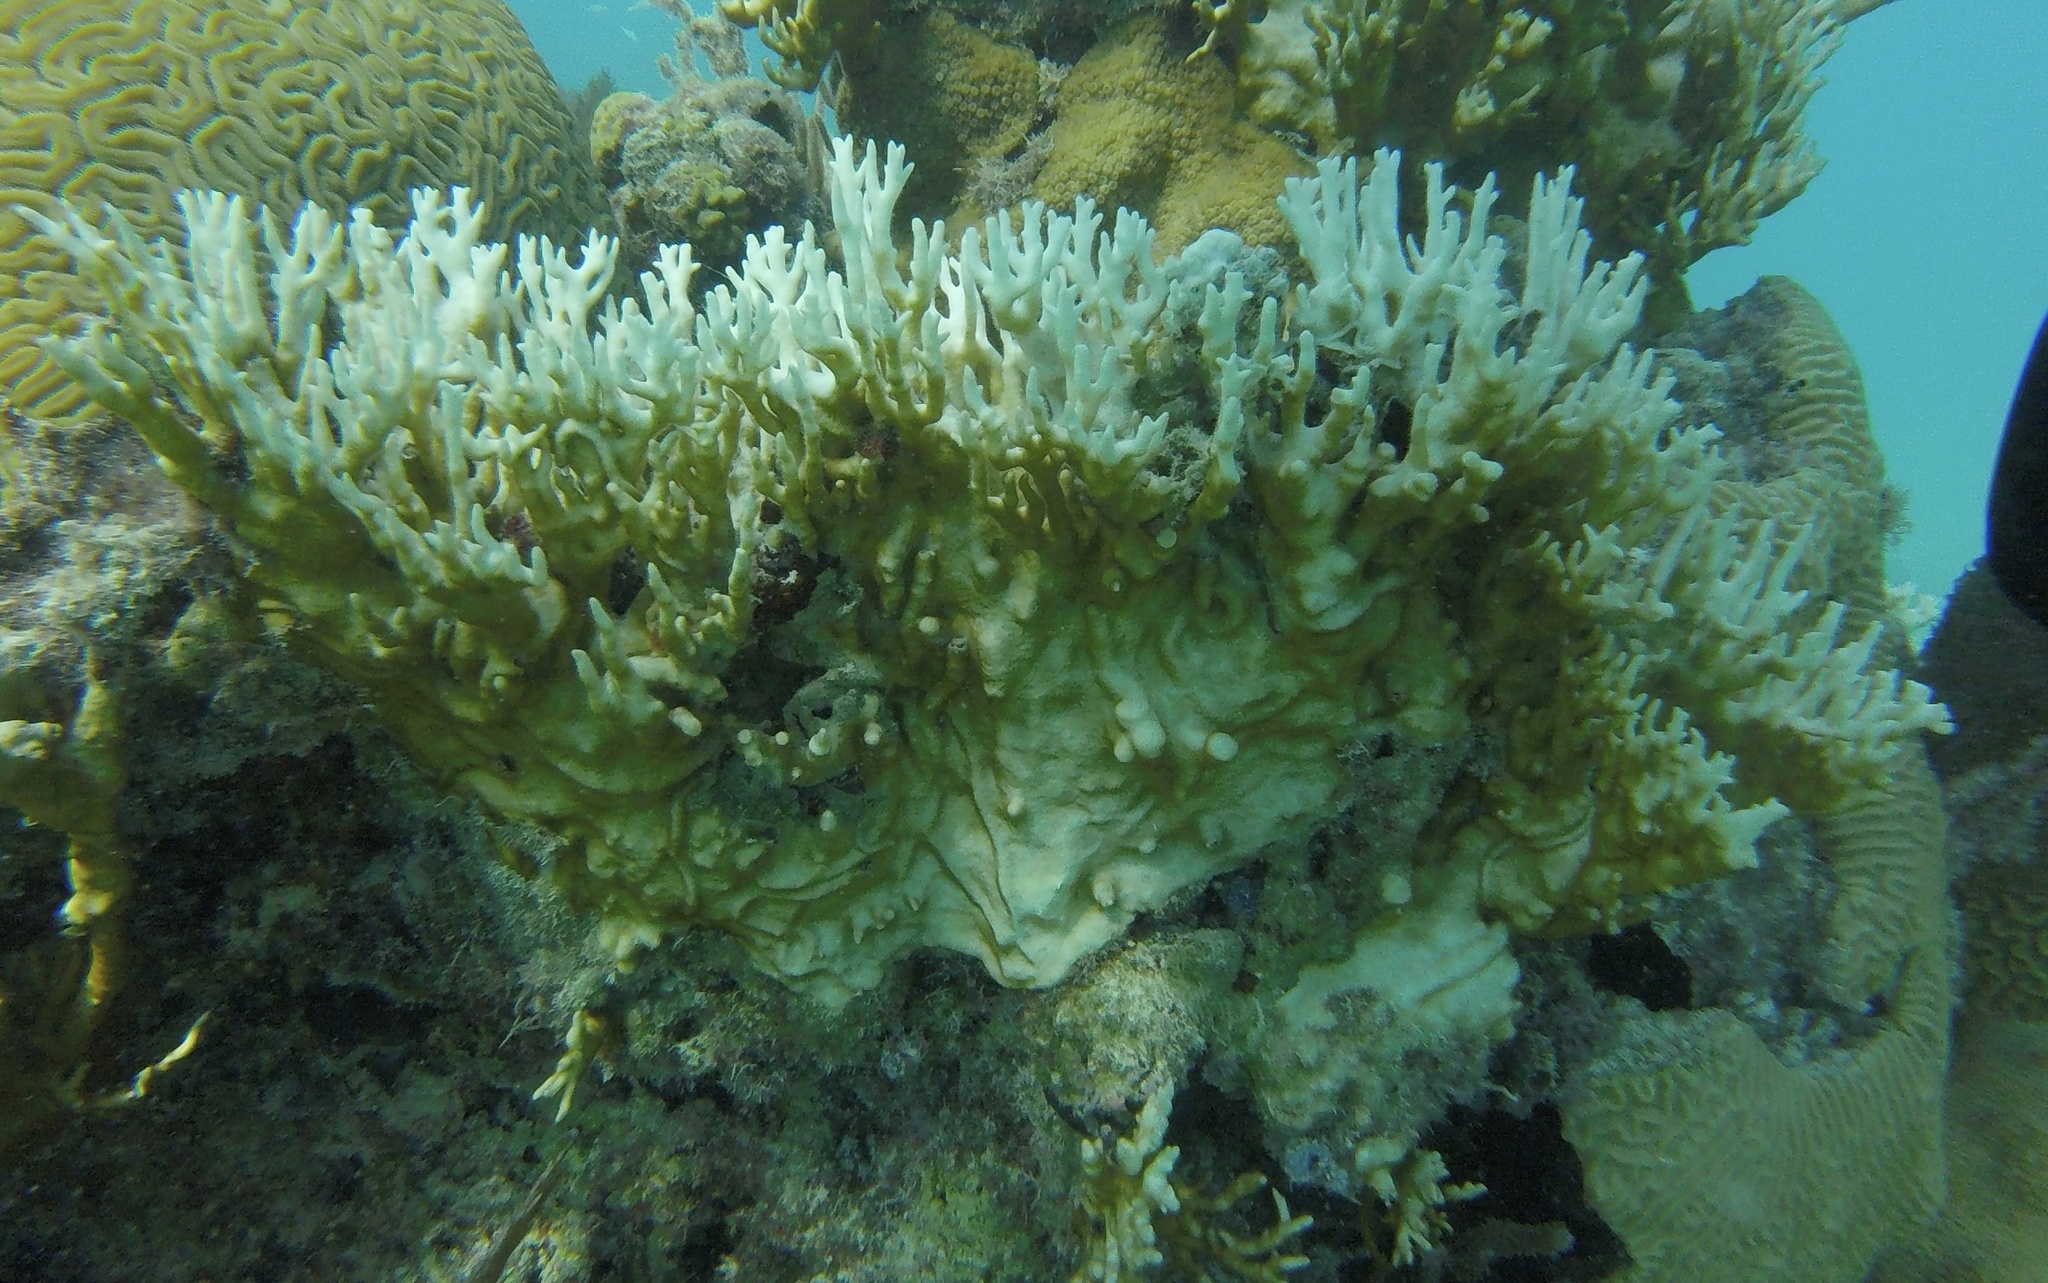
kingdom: Animalia
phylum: Cnidaria
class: Hydrozoa
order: Anthoathecata
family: Milleporidae
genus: Millepora
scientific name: Millepora alcicornis
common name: Branching fire coral
